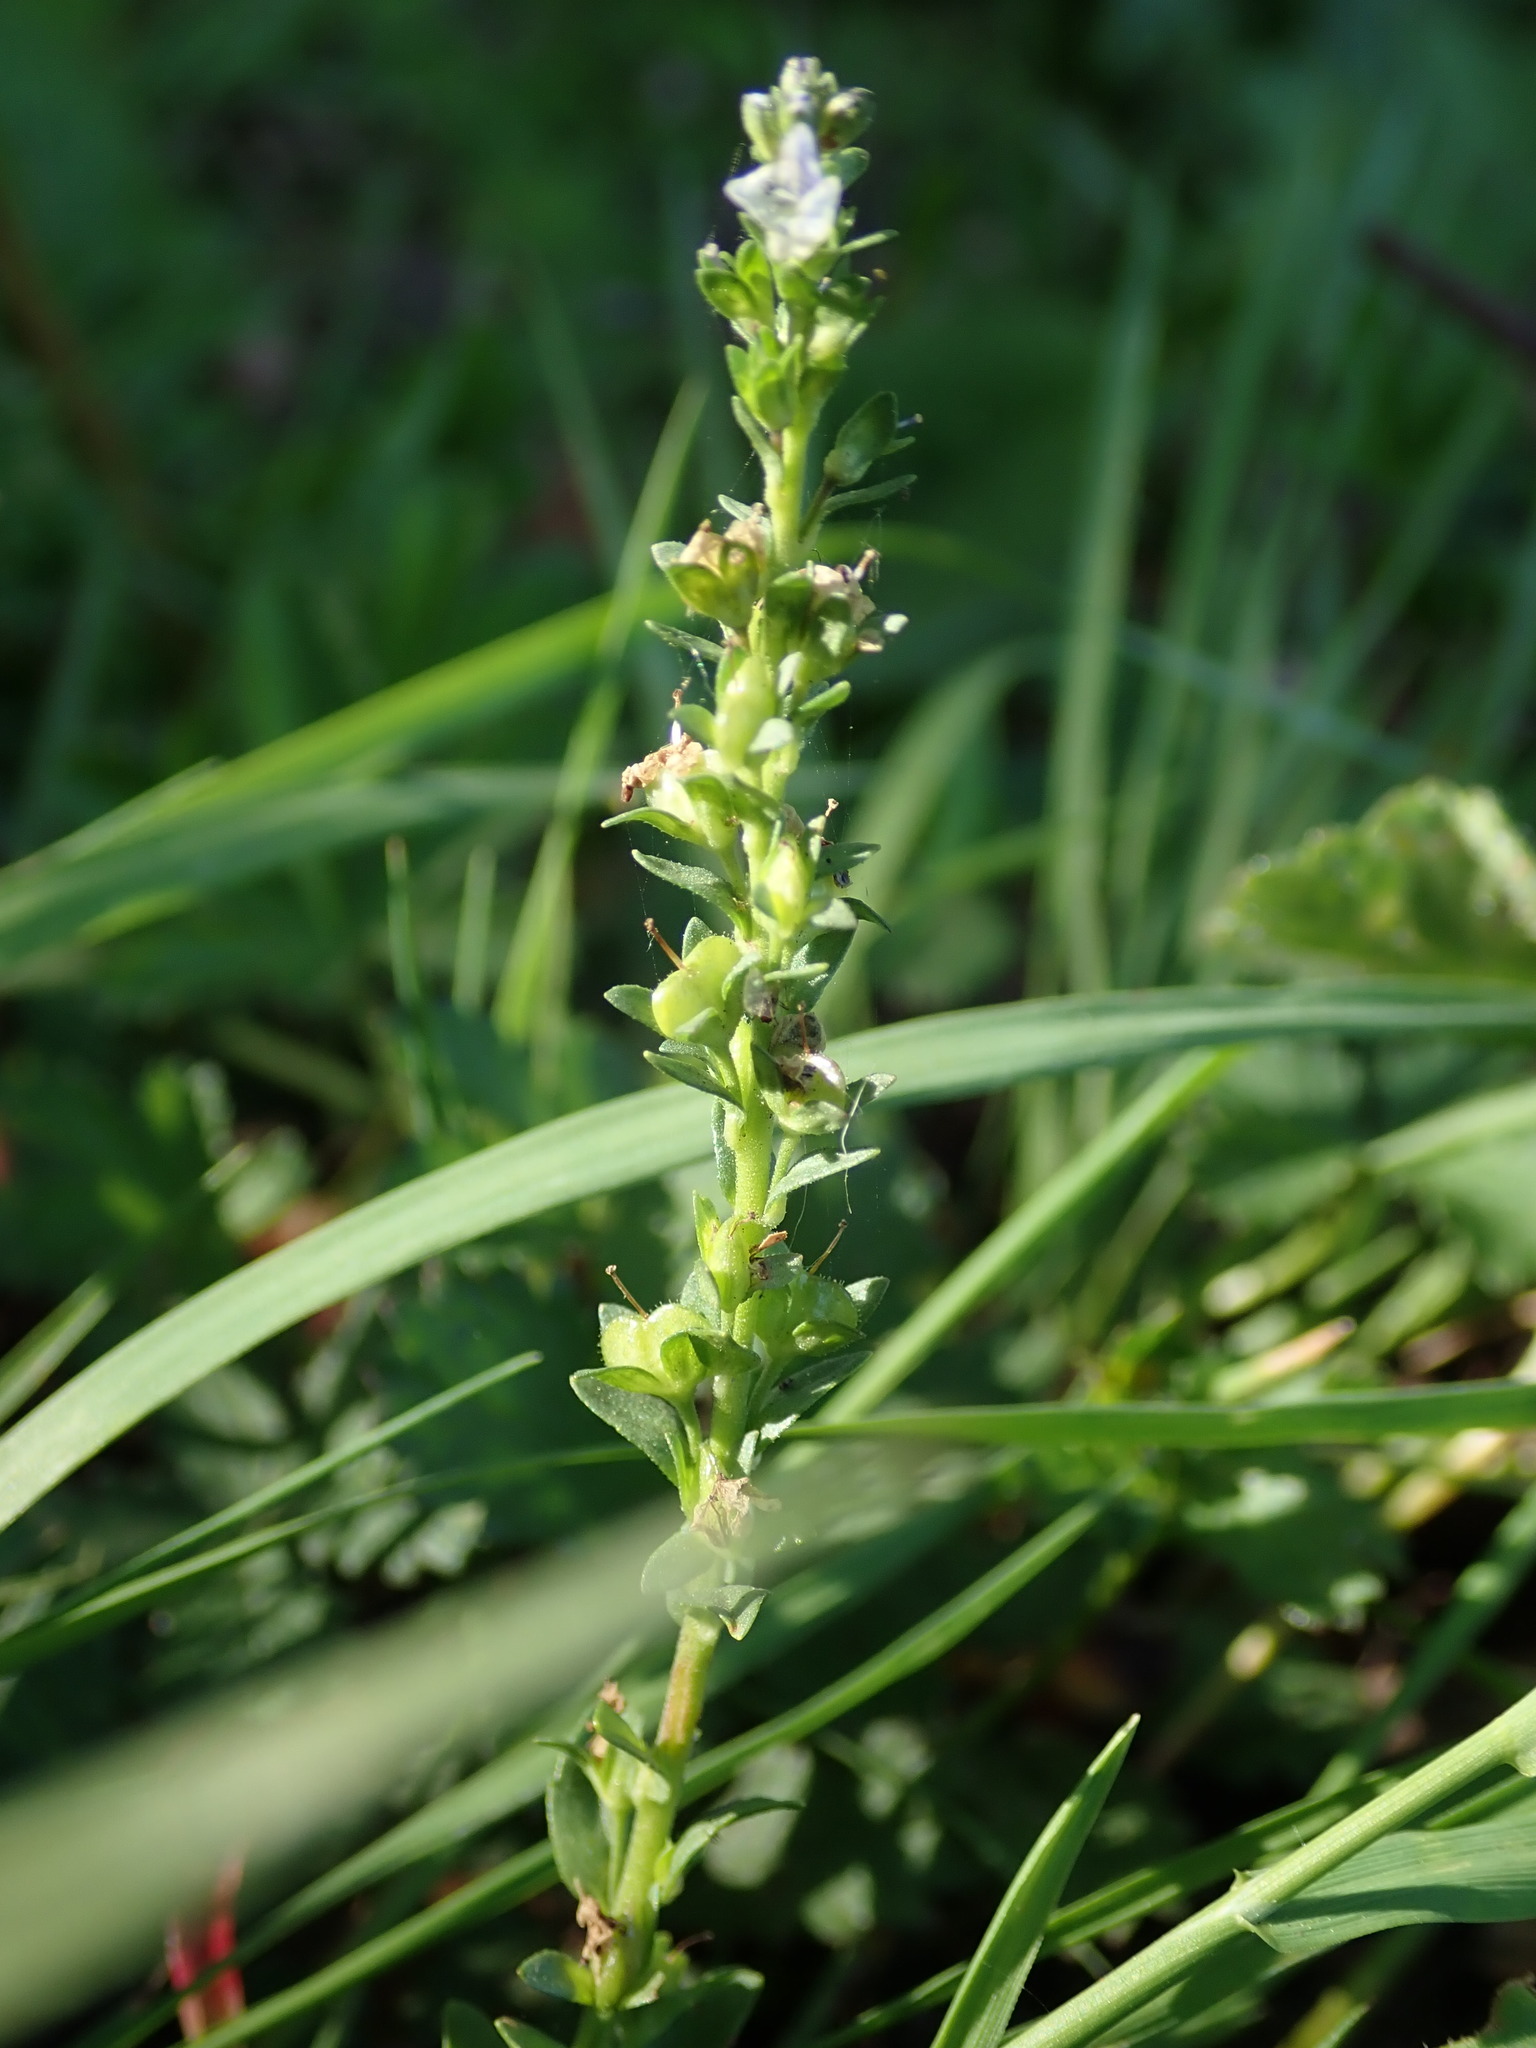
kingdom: Plantae
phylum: Tracheophyta
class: Magnoliopsida
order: Lamiales
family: Plantaginaceae
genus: Veronica
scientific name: Veronica serpyllifolia
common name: Thyme-leaved speedwell
